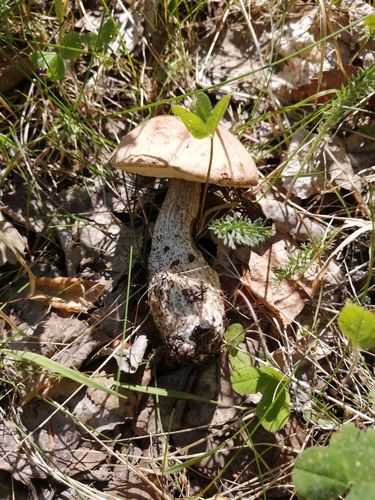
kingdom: Fungi
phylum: Basidiomycota
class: Agaricomycetes
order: Boletales
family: Boletaceae
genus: Leccinum
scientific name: Leccinum scabrum
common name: Blushing bolete
